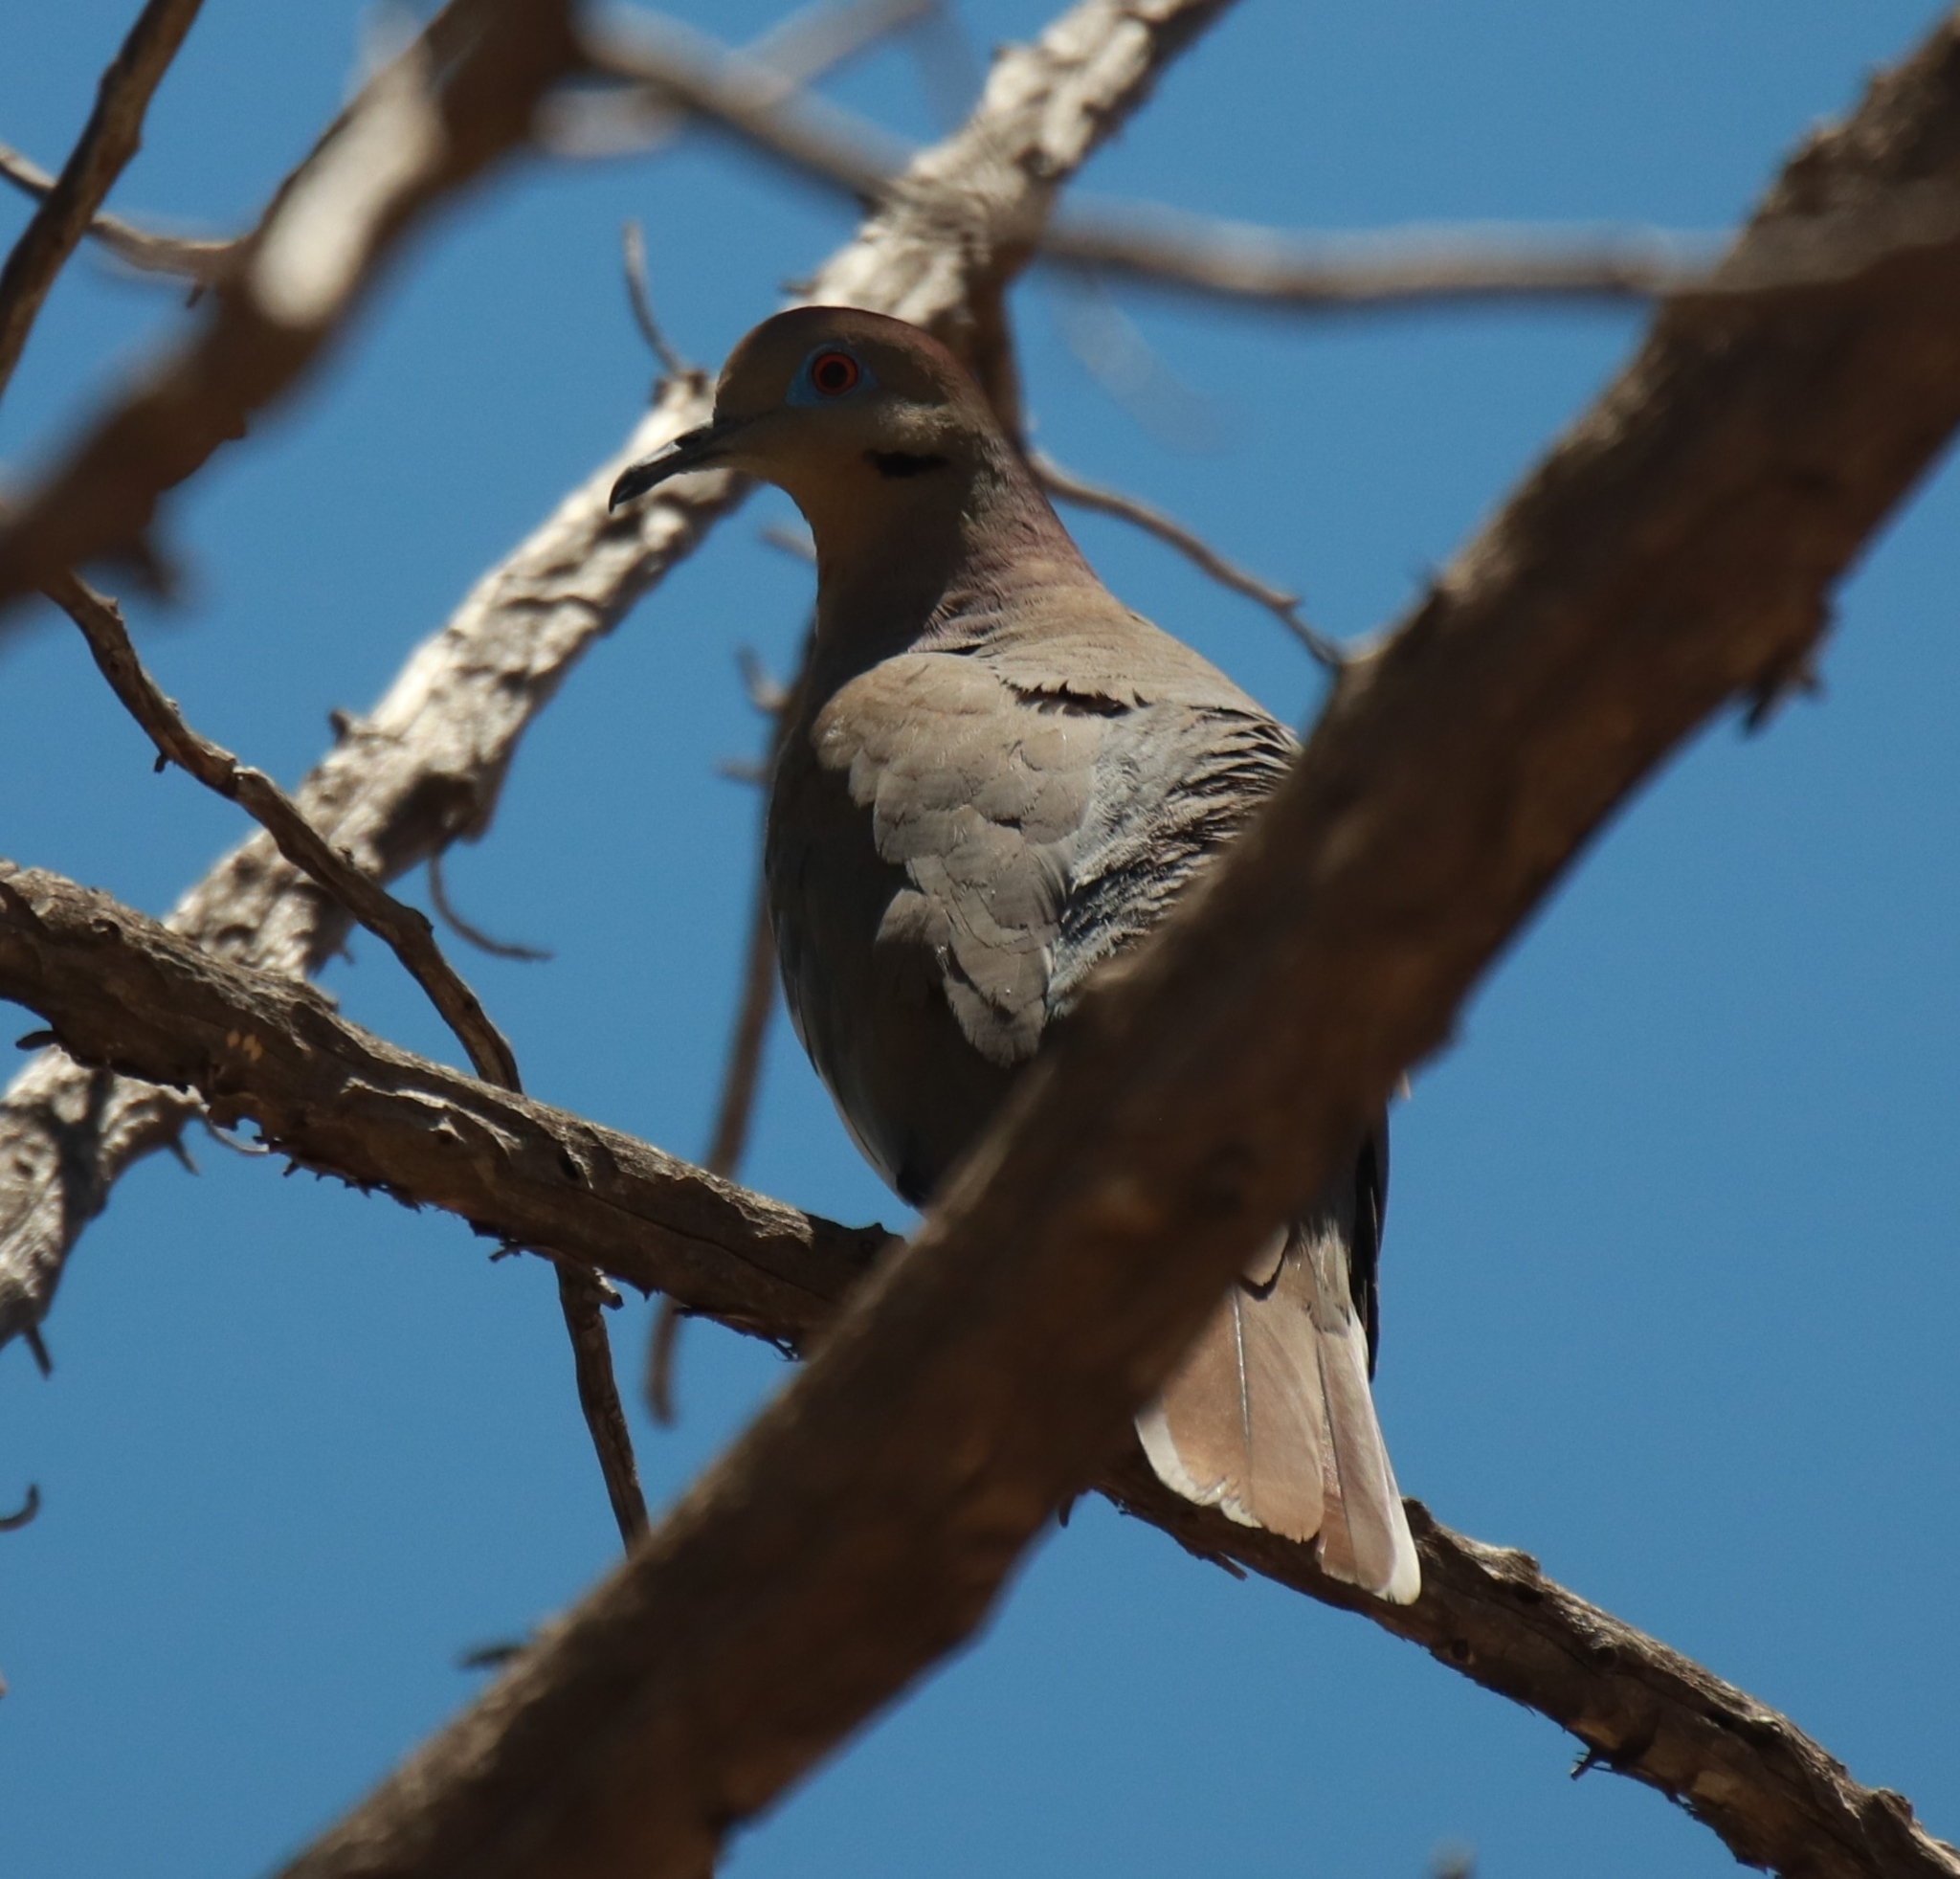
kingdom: Animalia
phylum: Chordata
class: Aves
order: Columbiformes
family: Columbidae
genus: Zenaida
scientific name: Zenaida asiatica
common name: White-winged dove
